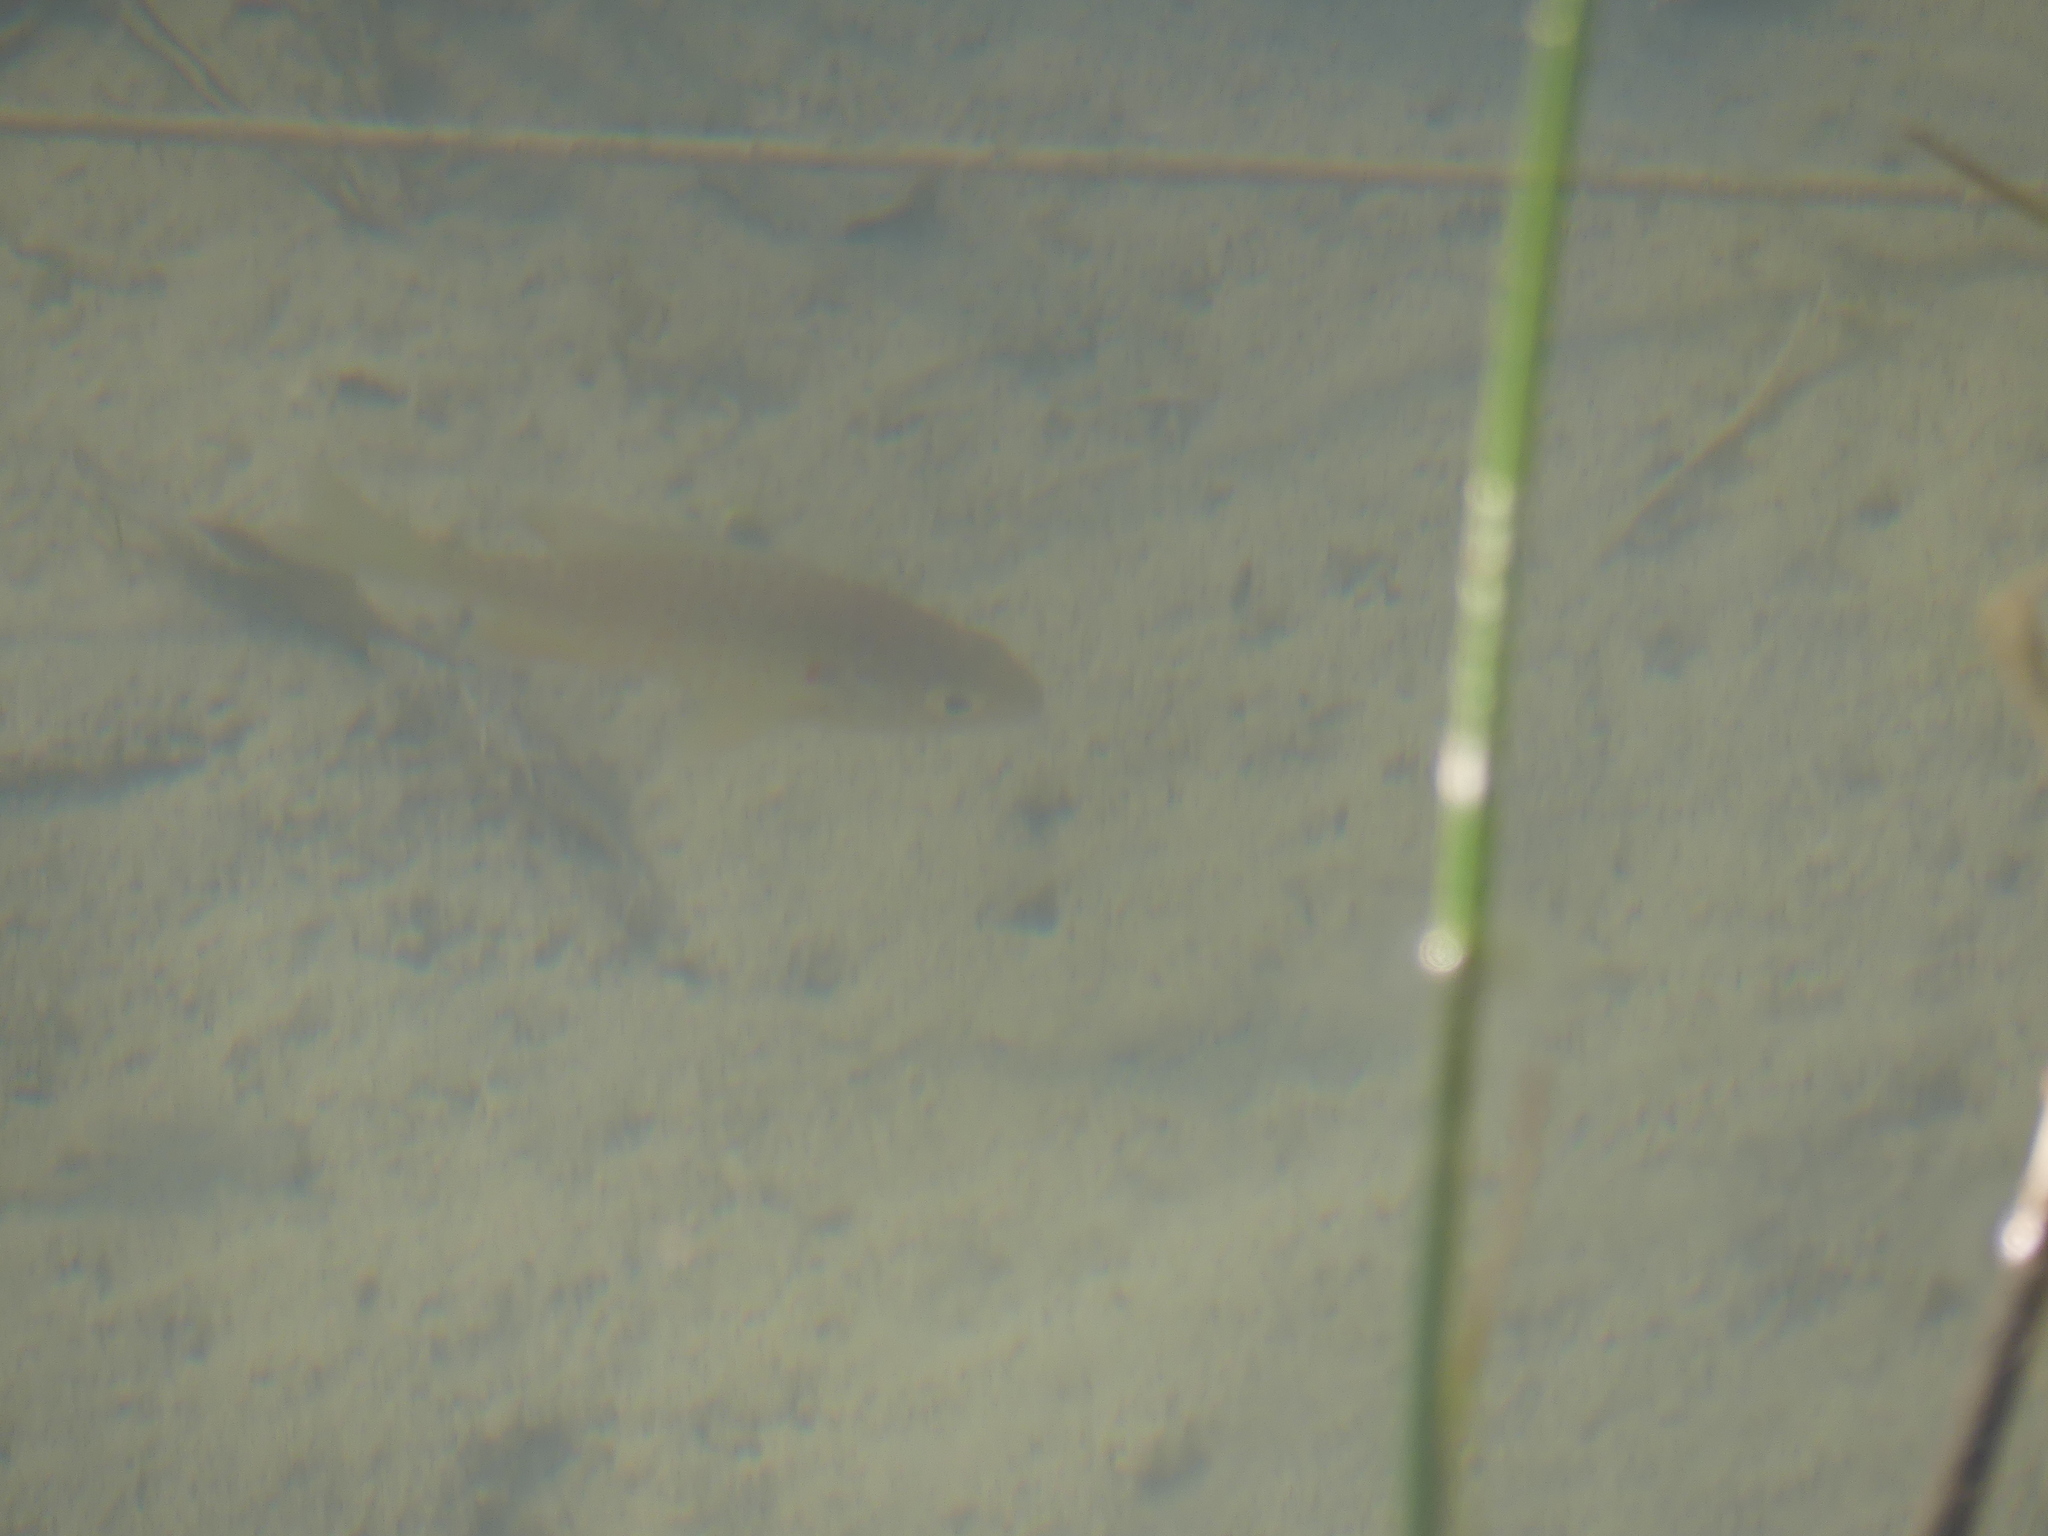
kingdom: Animalia
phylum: Chordata
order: Perciformes
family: Centrarchidae
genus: Lepomis
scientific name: Lepomis gibbosus
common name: Pumpkinseed
